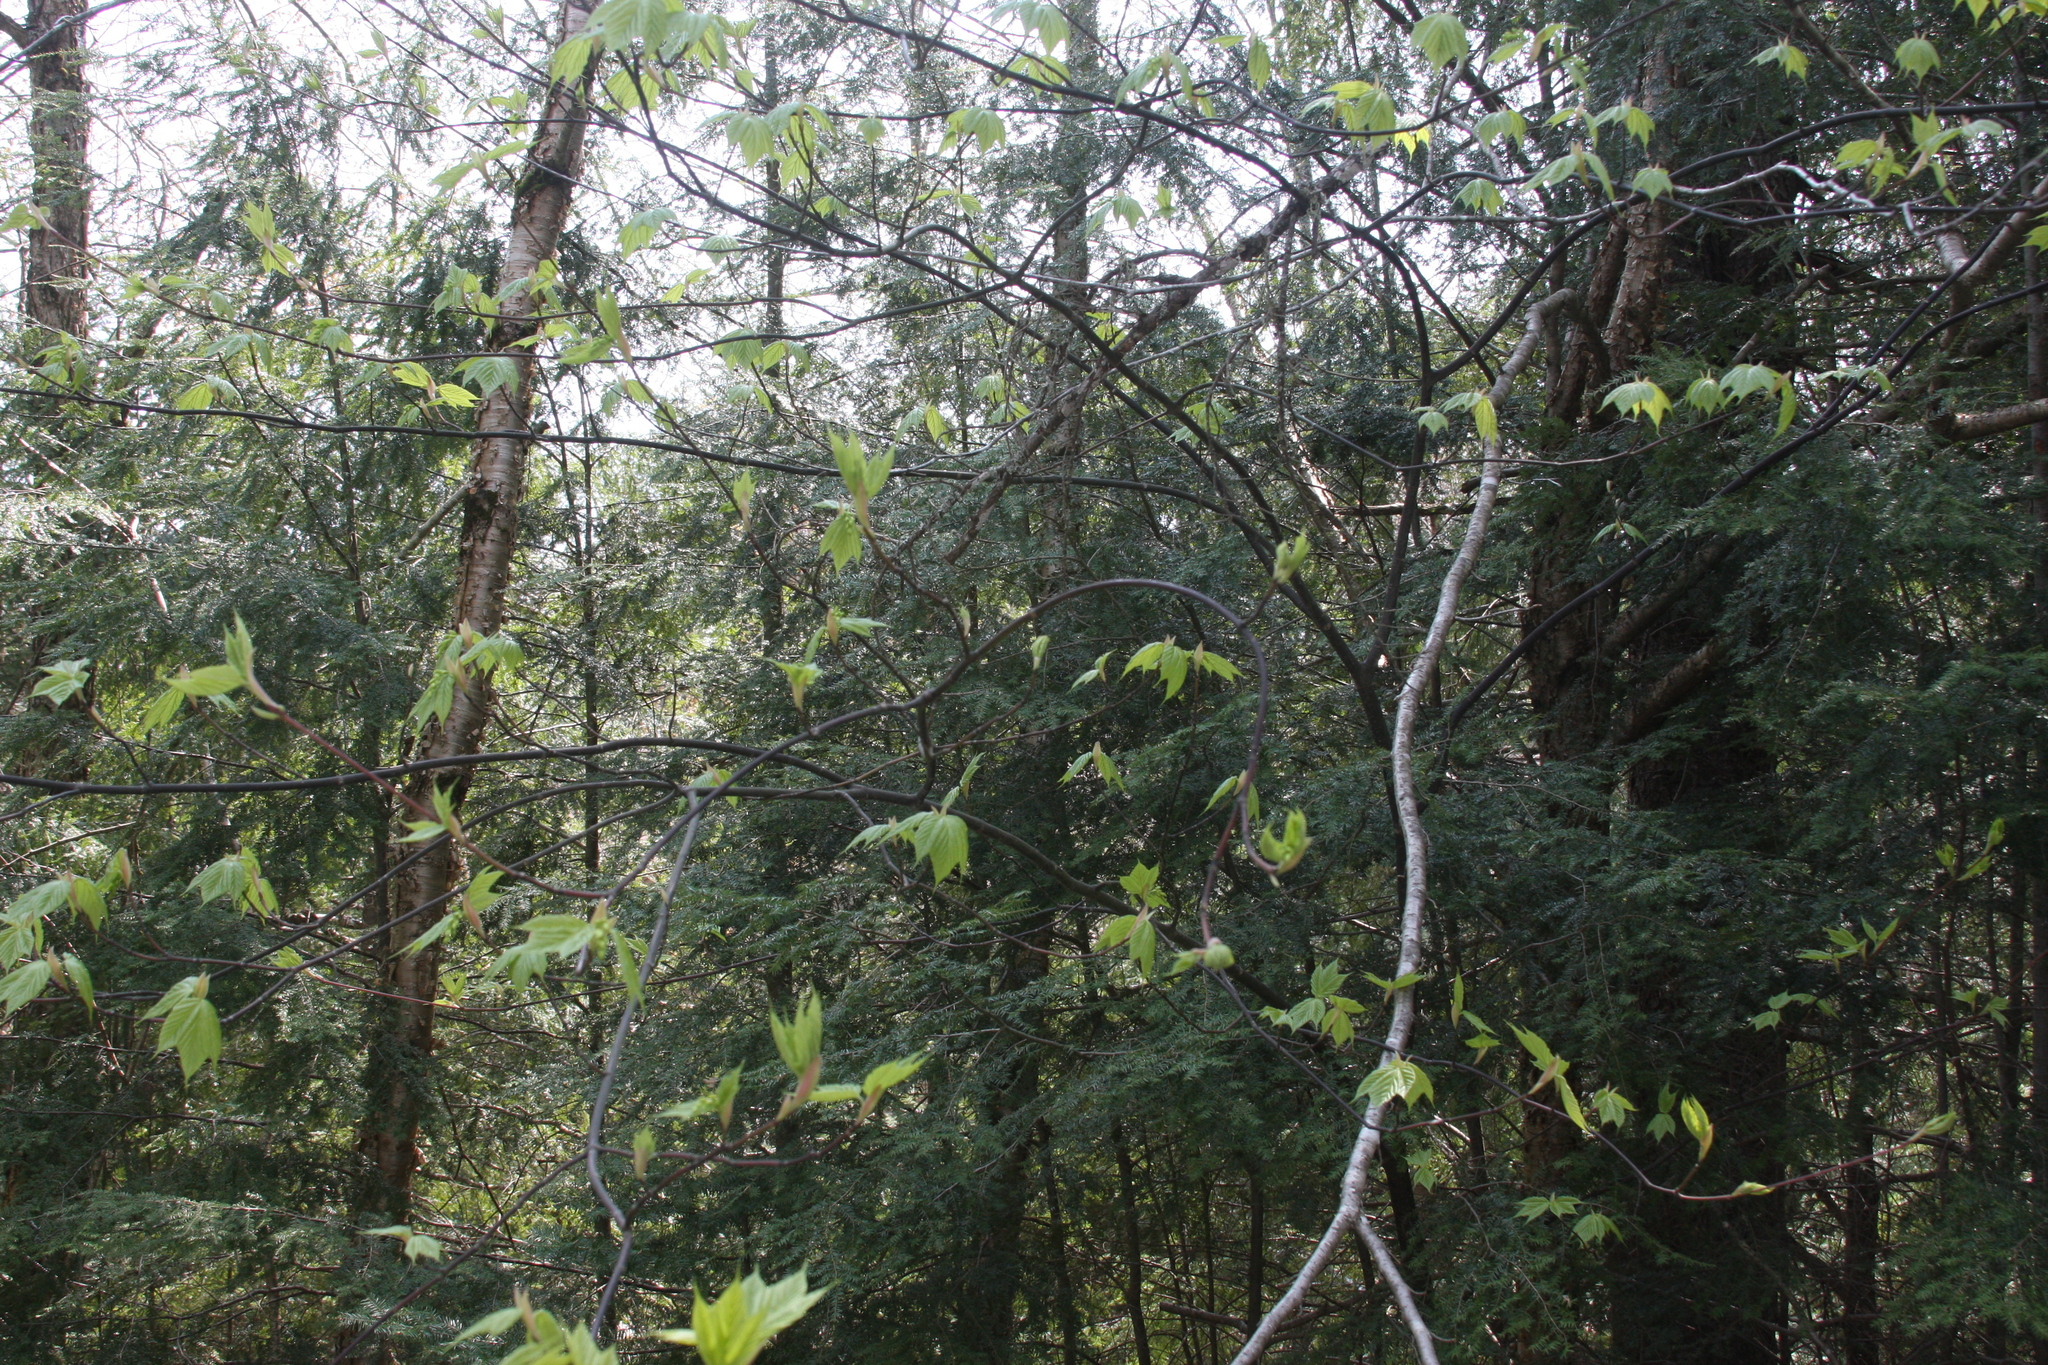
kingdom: Plantae
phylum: Tracheophyta
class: Magnoliopsida
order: Sapindales
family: Sapindaceae
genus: Acer
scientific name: Acer pensylvanicum
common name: Moosewood
